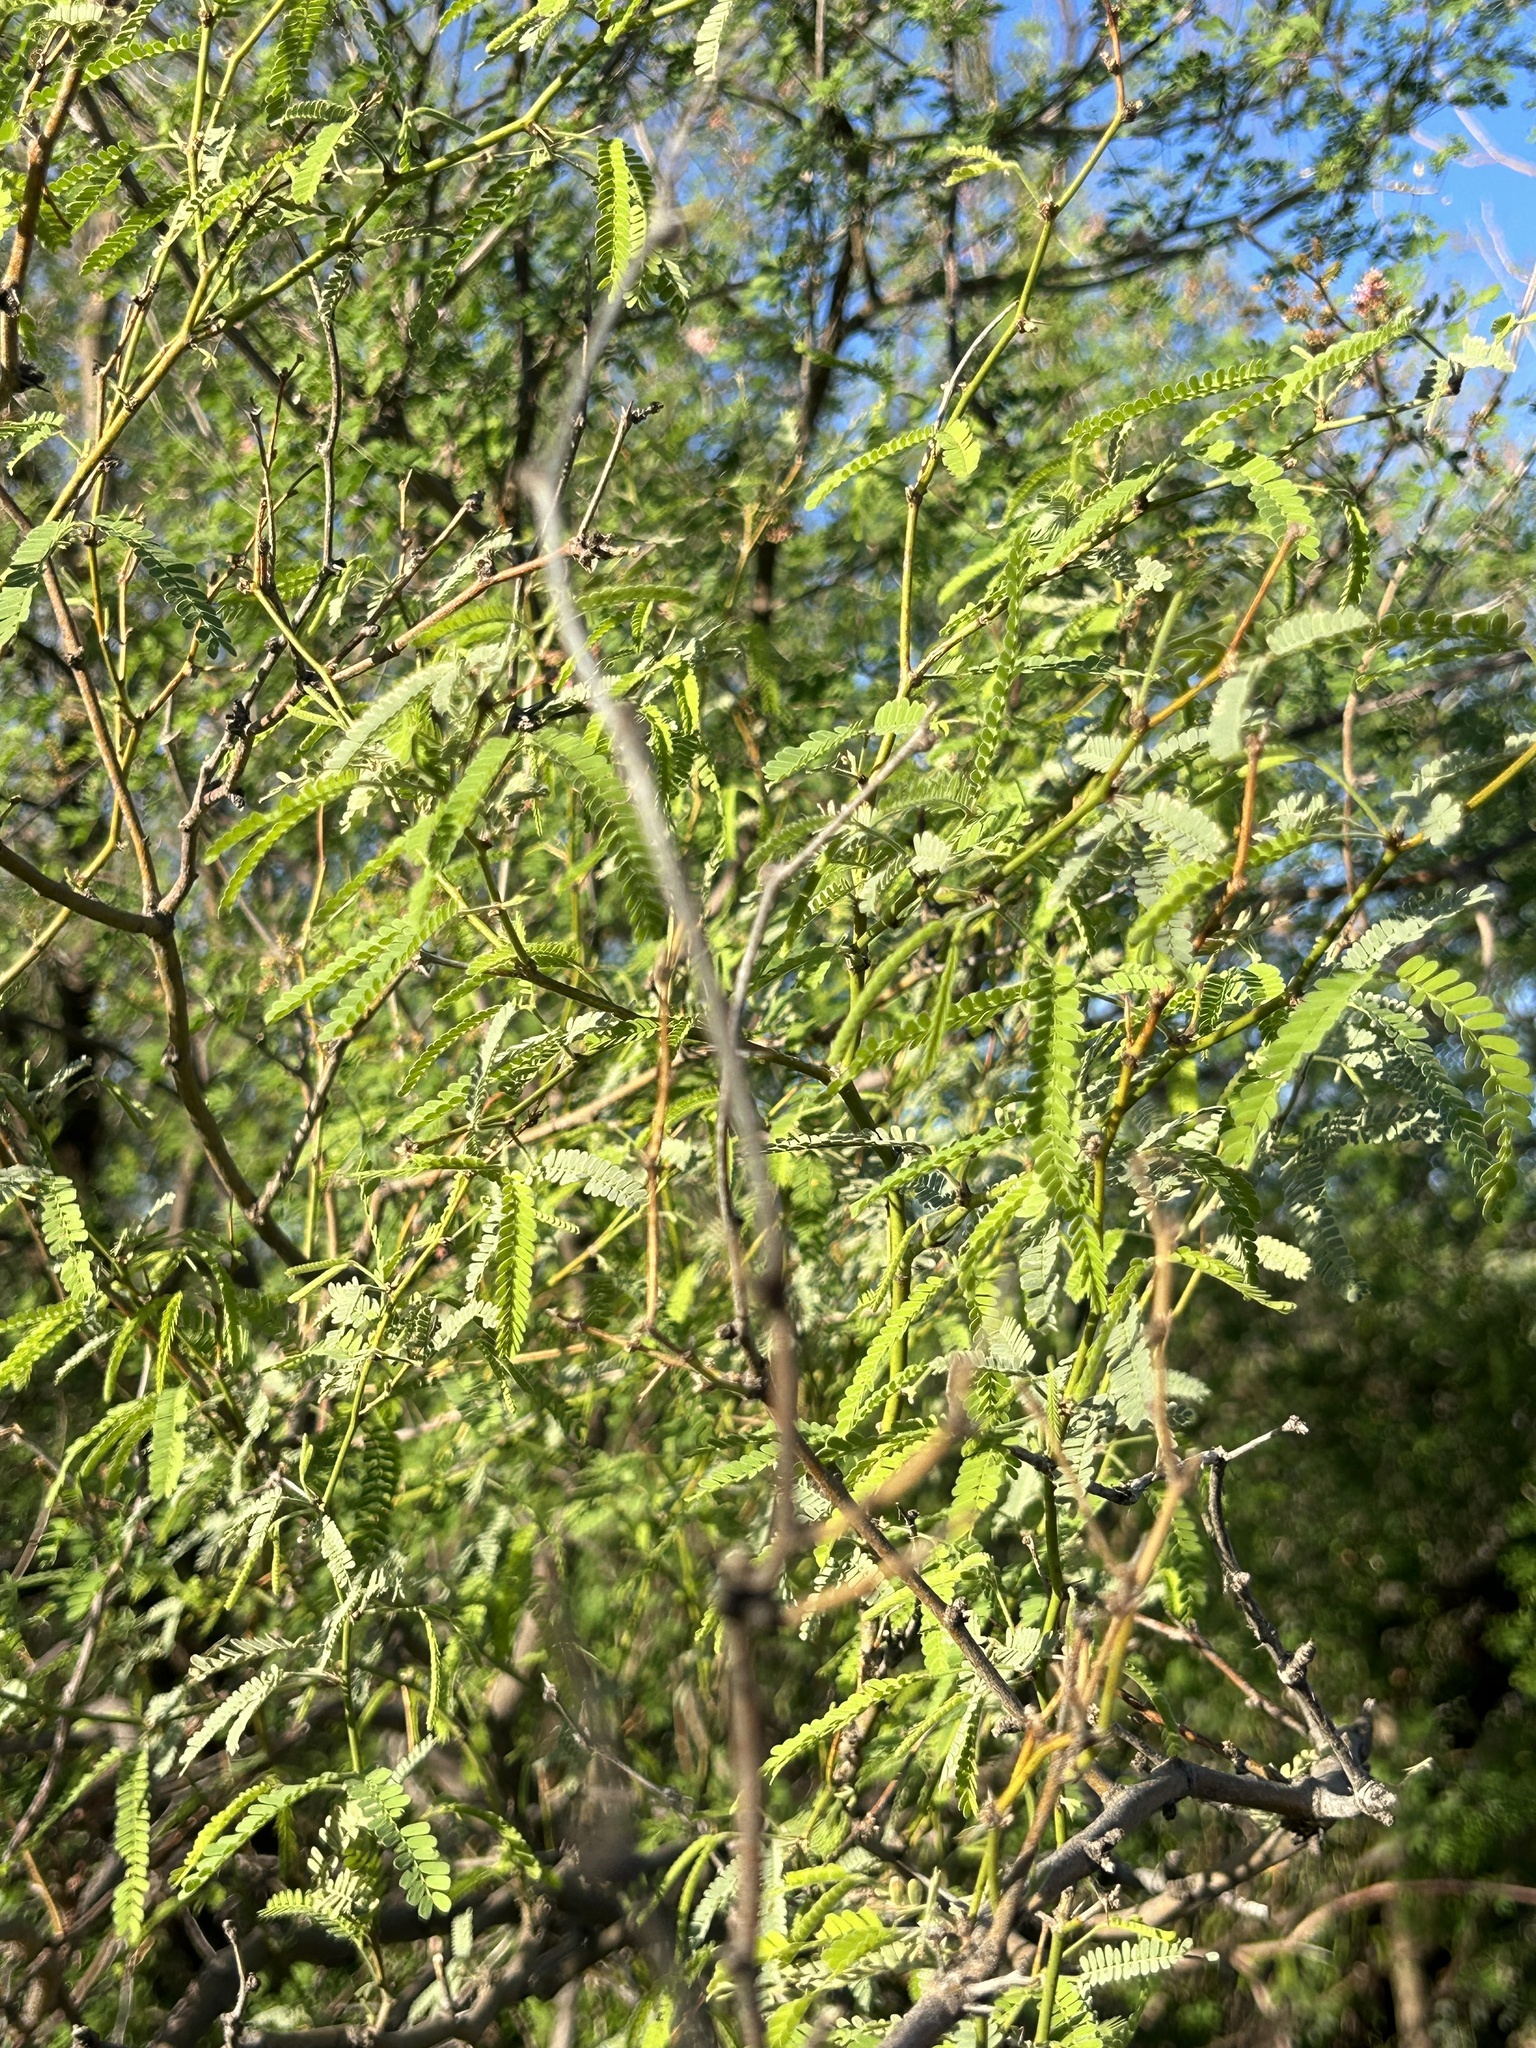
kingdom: Plantae
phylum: Tracheophyta
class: Magnoliopsida
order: Fabales
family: Fabaceae
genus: Prosopis
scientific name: Prosopis velutina
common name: Velvet mesquite
